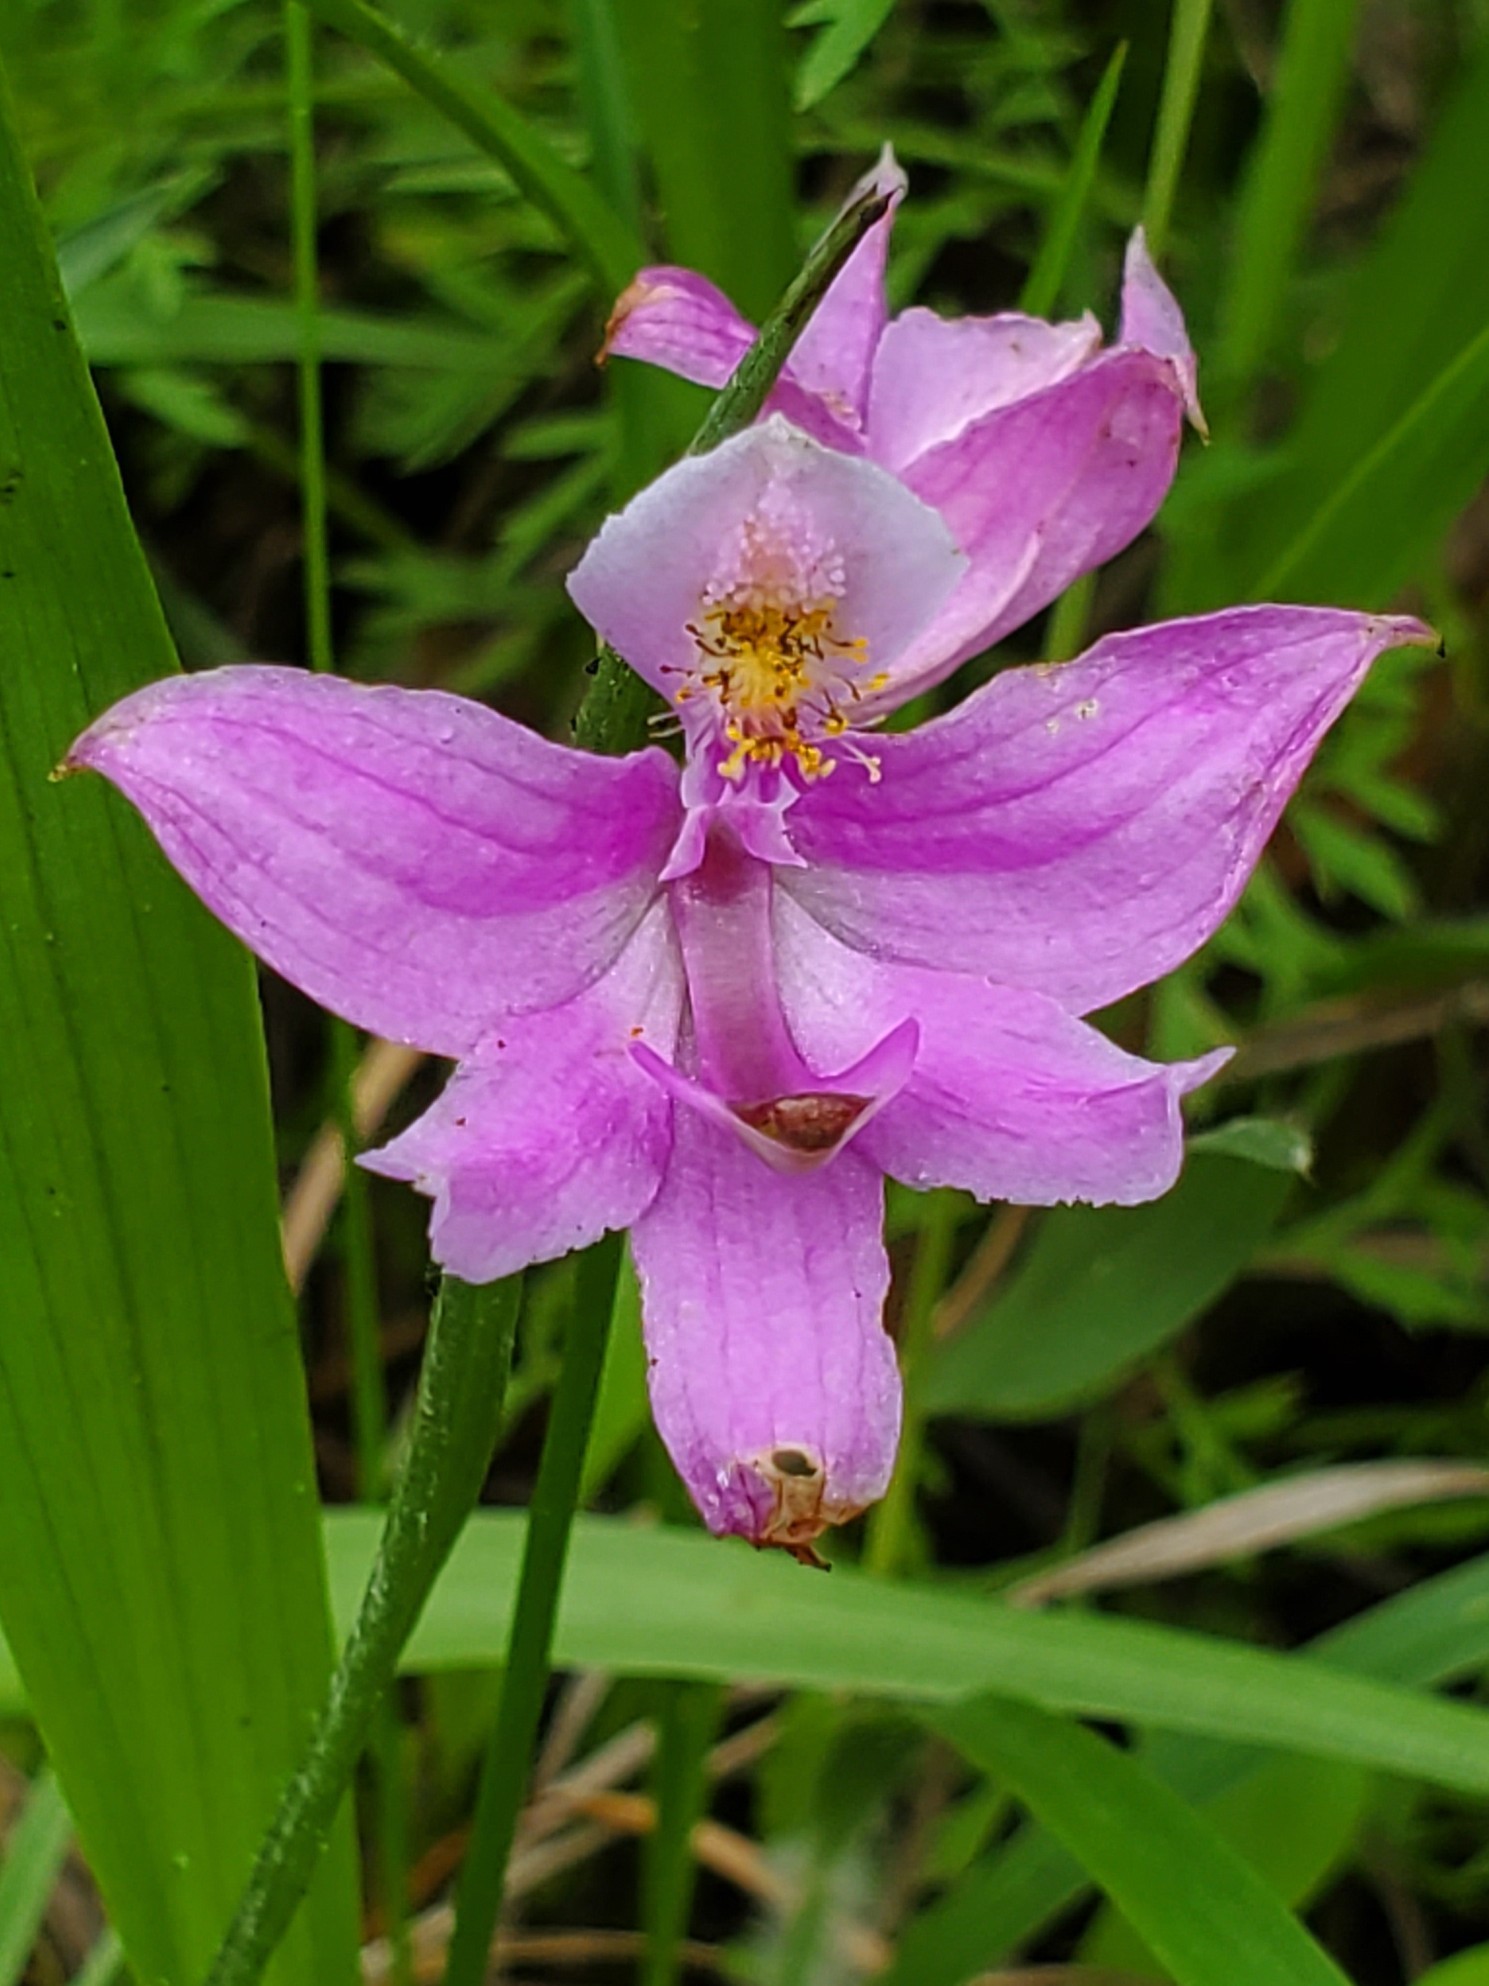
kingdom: Plantae
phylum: Tracheophyta
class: Liliopsida
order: Asparagales
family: Orchidaceae
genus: Calopogon
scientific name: Calopogon oklahomensis
